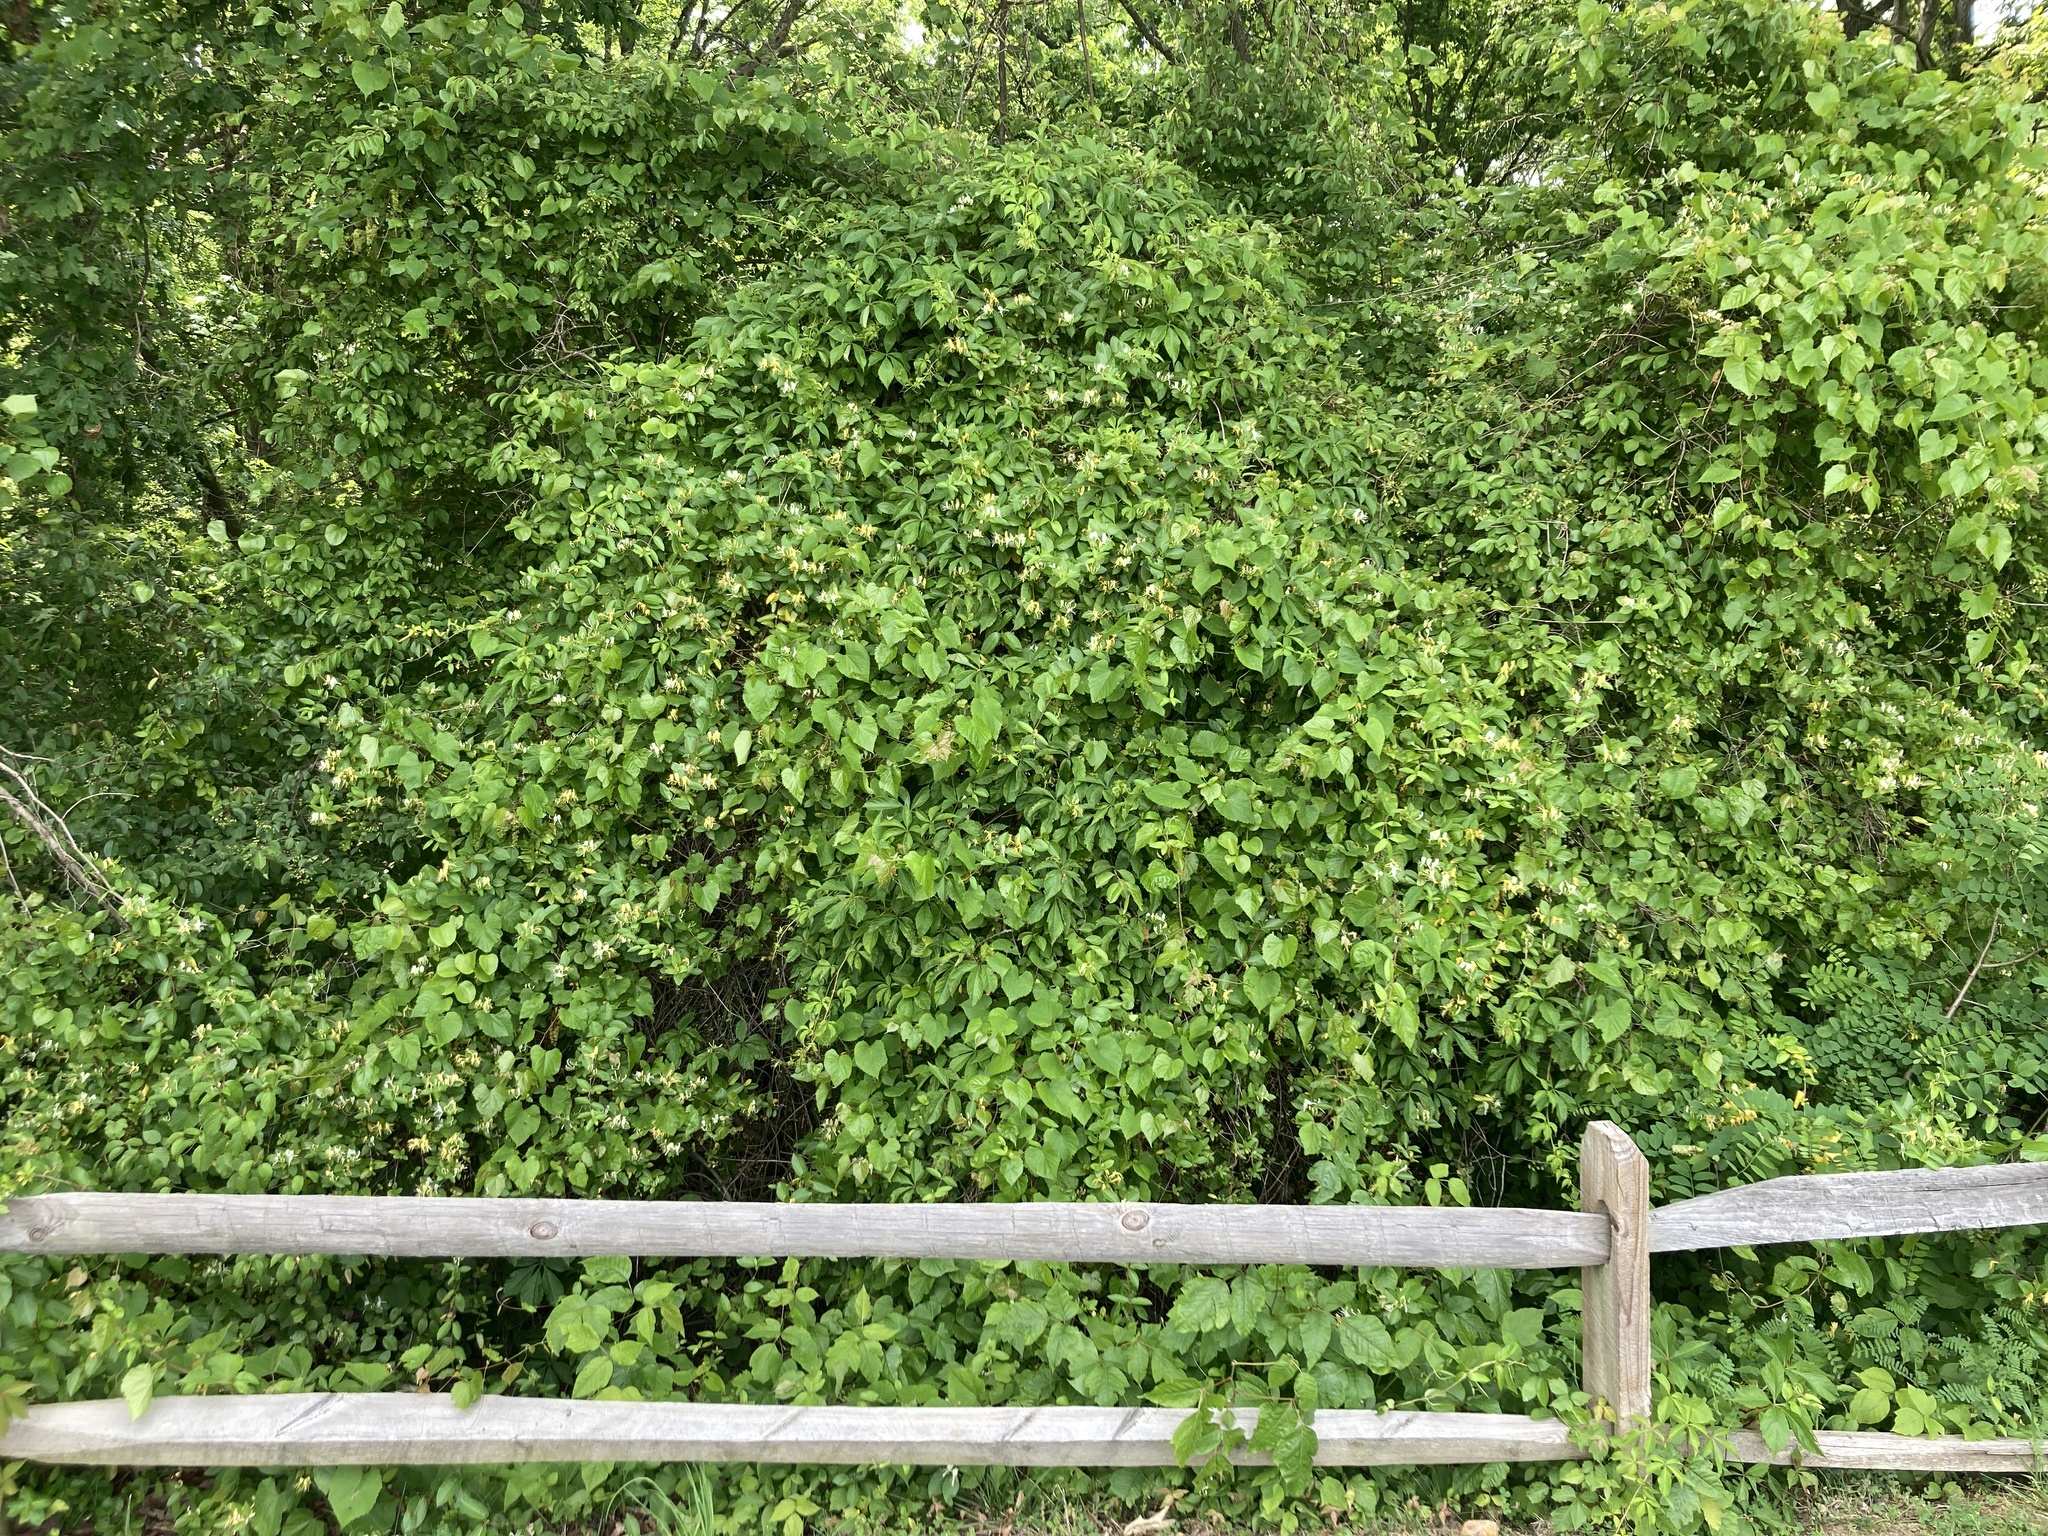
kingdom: Plantae
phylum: Tracheophyta
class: Magnoliopsida
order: Dipsacales
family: Caprifoliaceae
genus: Lonicera
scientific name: Lonicera maackii
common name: Amur honeysuckle
